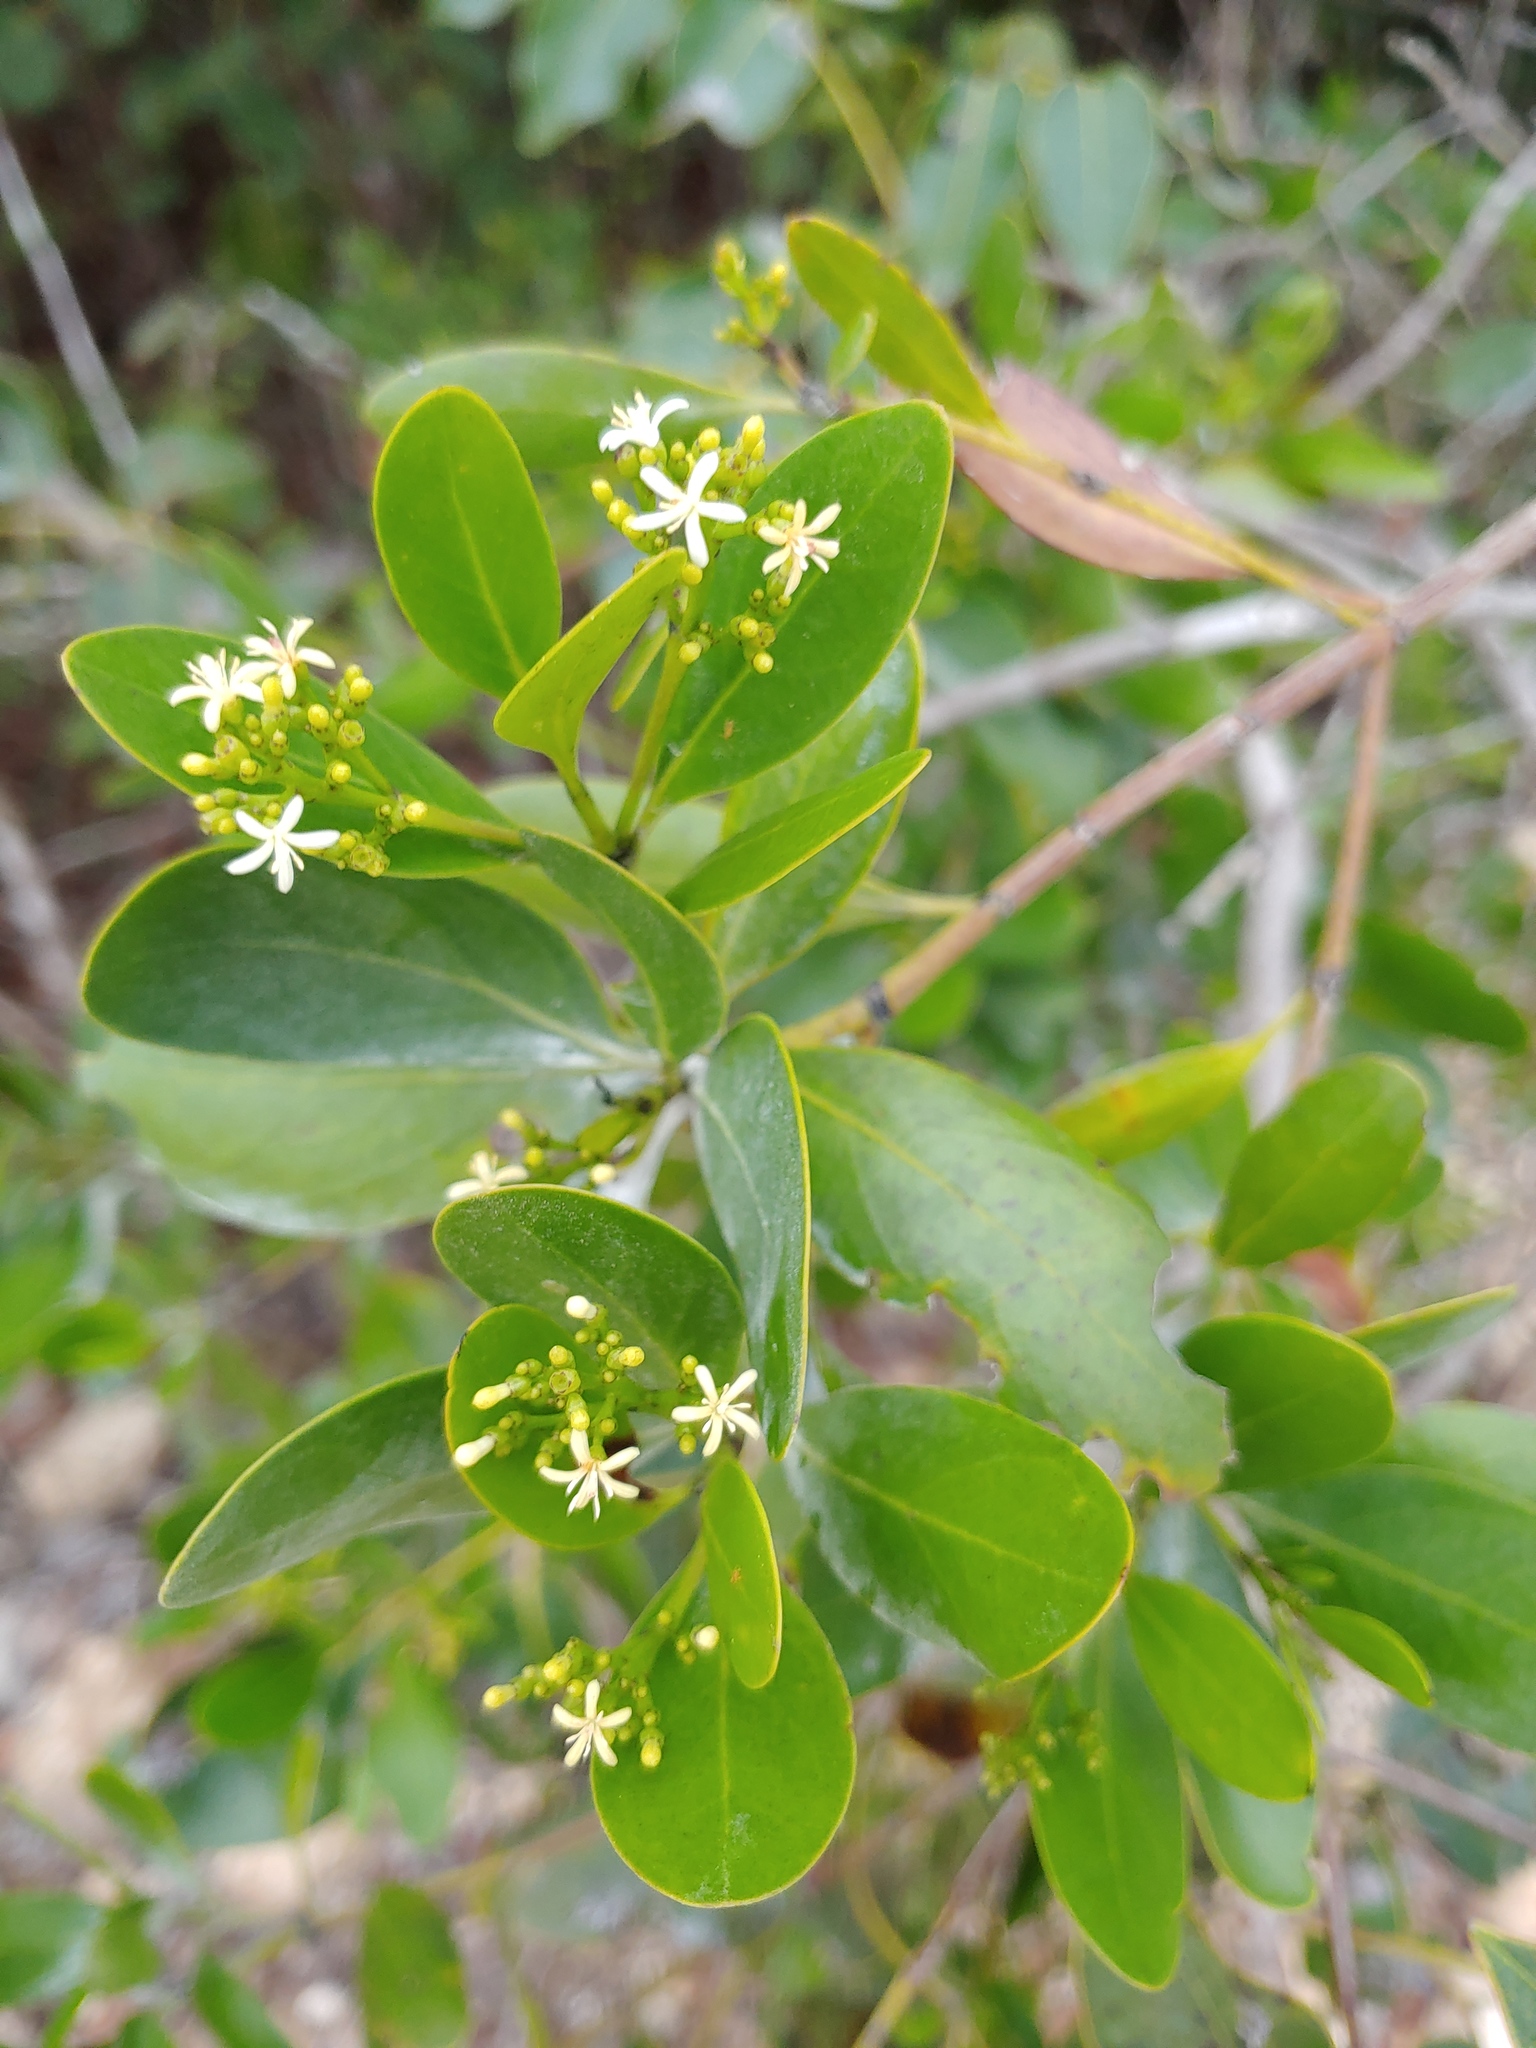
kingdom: Plantae
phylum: Tracheophyta
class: Magnoliopsida
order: Gentianales
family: Rubiaceae
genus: Erithalis
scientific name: Erithalis fruticosa
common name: Candlewood
